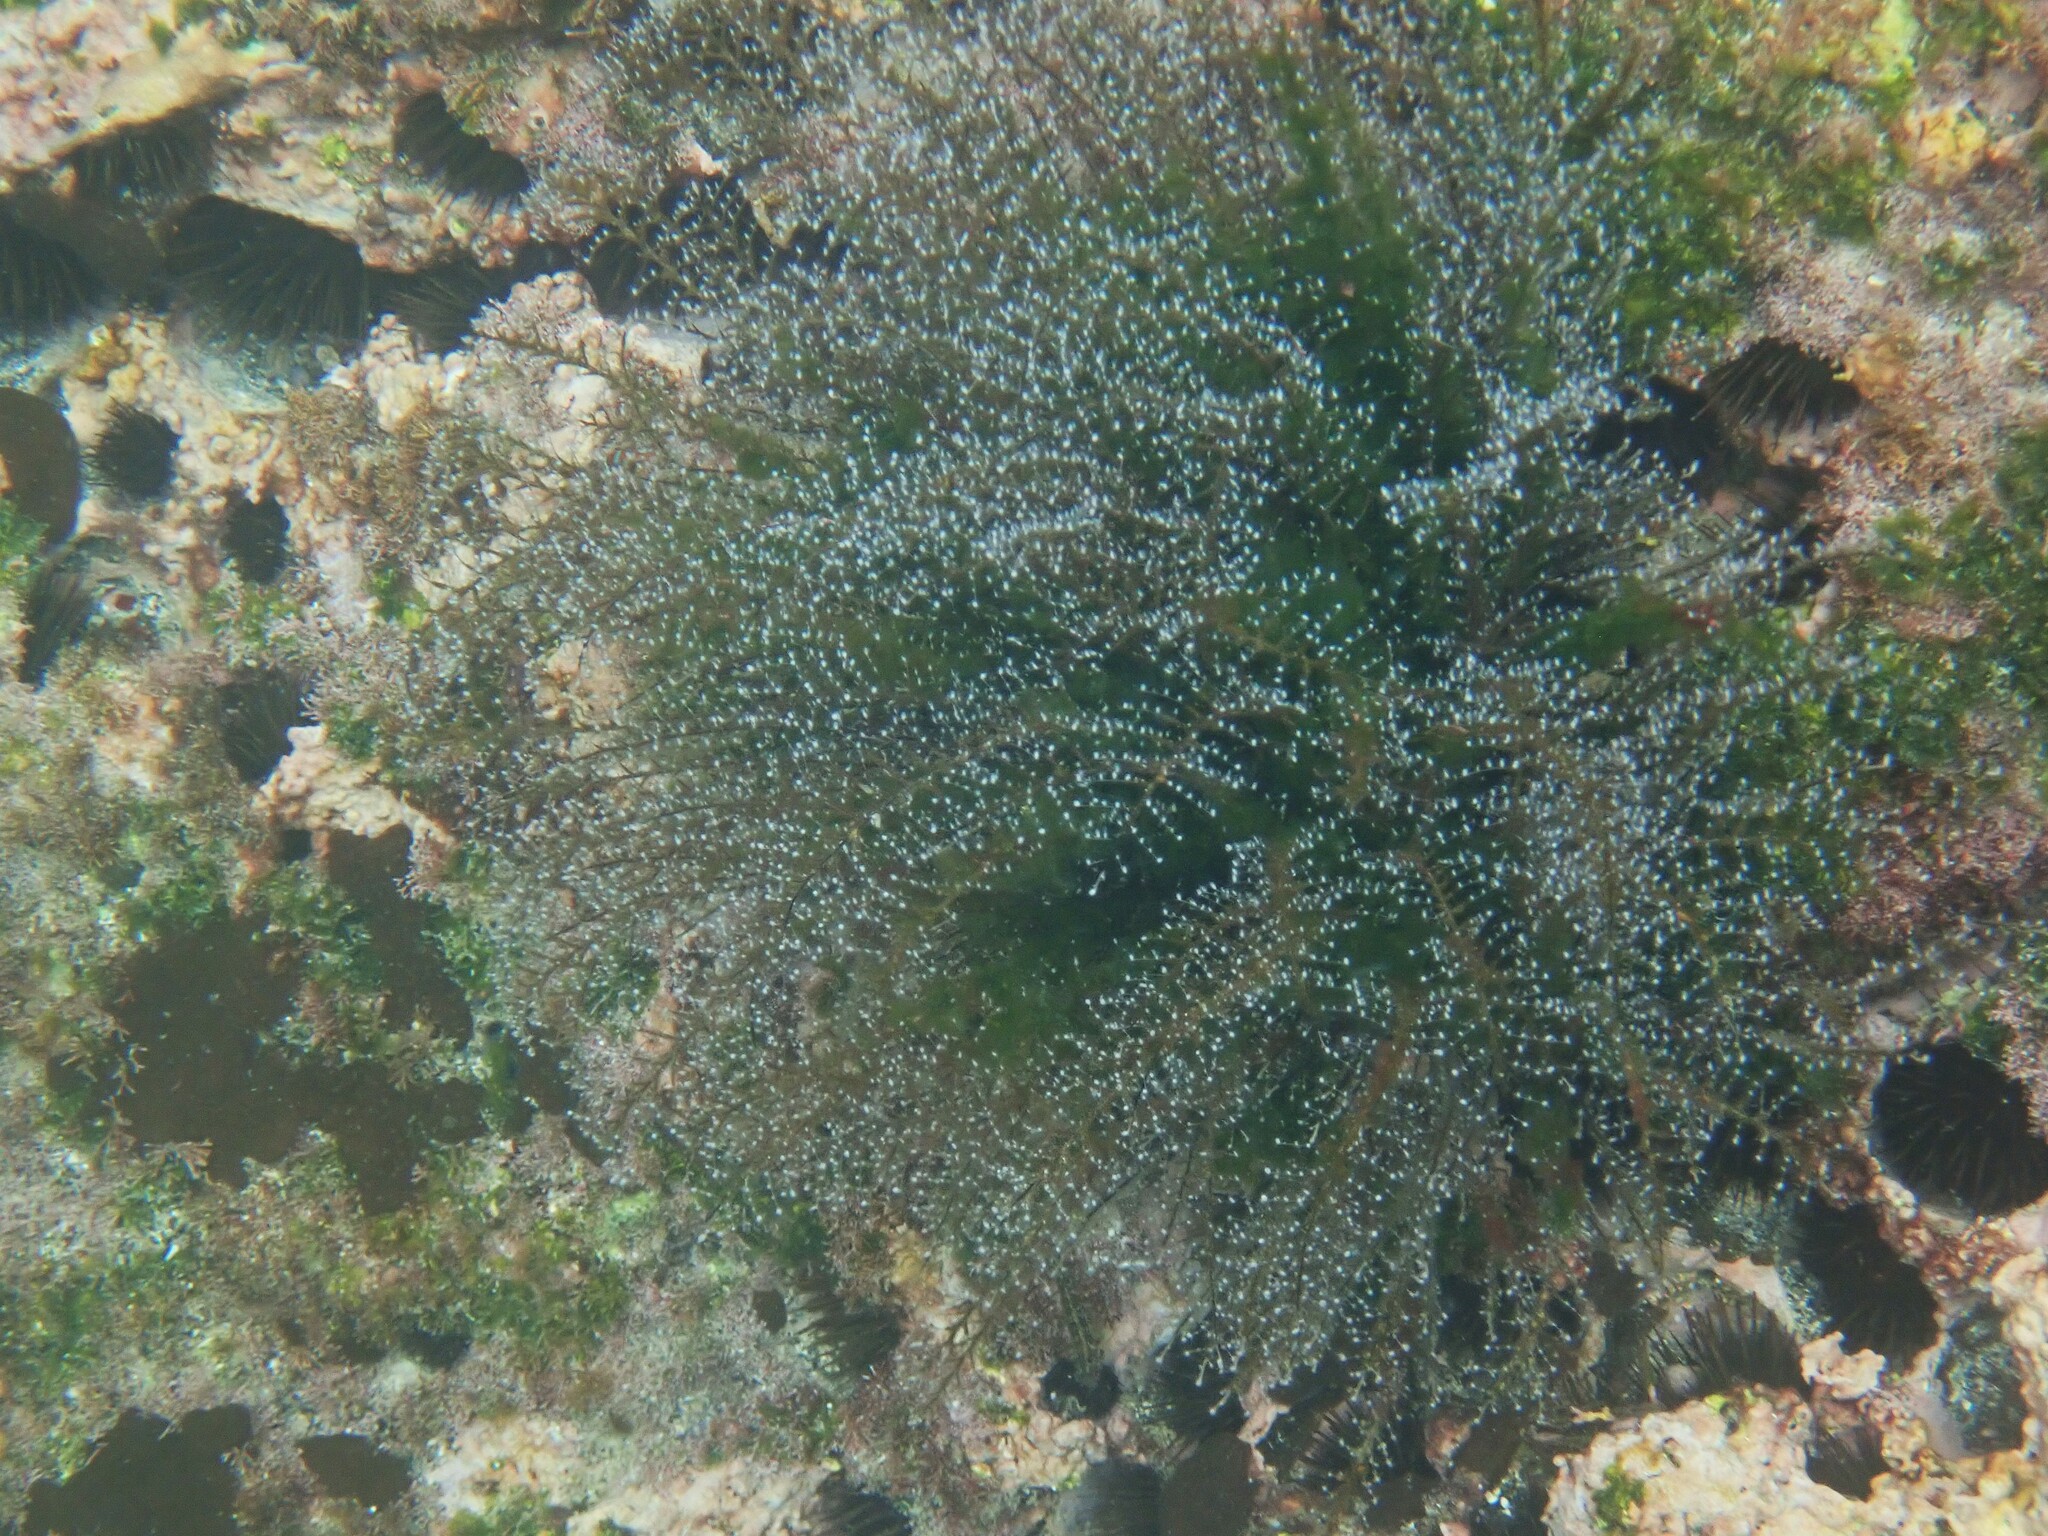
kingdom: Animalia
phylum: Cnidaria
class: Hydrozoa
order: Anthoathecata
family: Pennariidae
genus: Pennaria
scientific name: Pennaria disticha
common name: Feather hydroid
